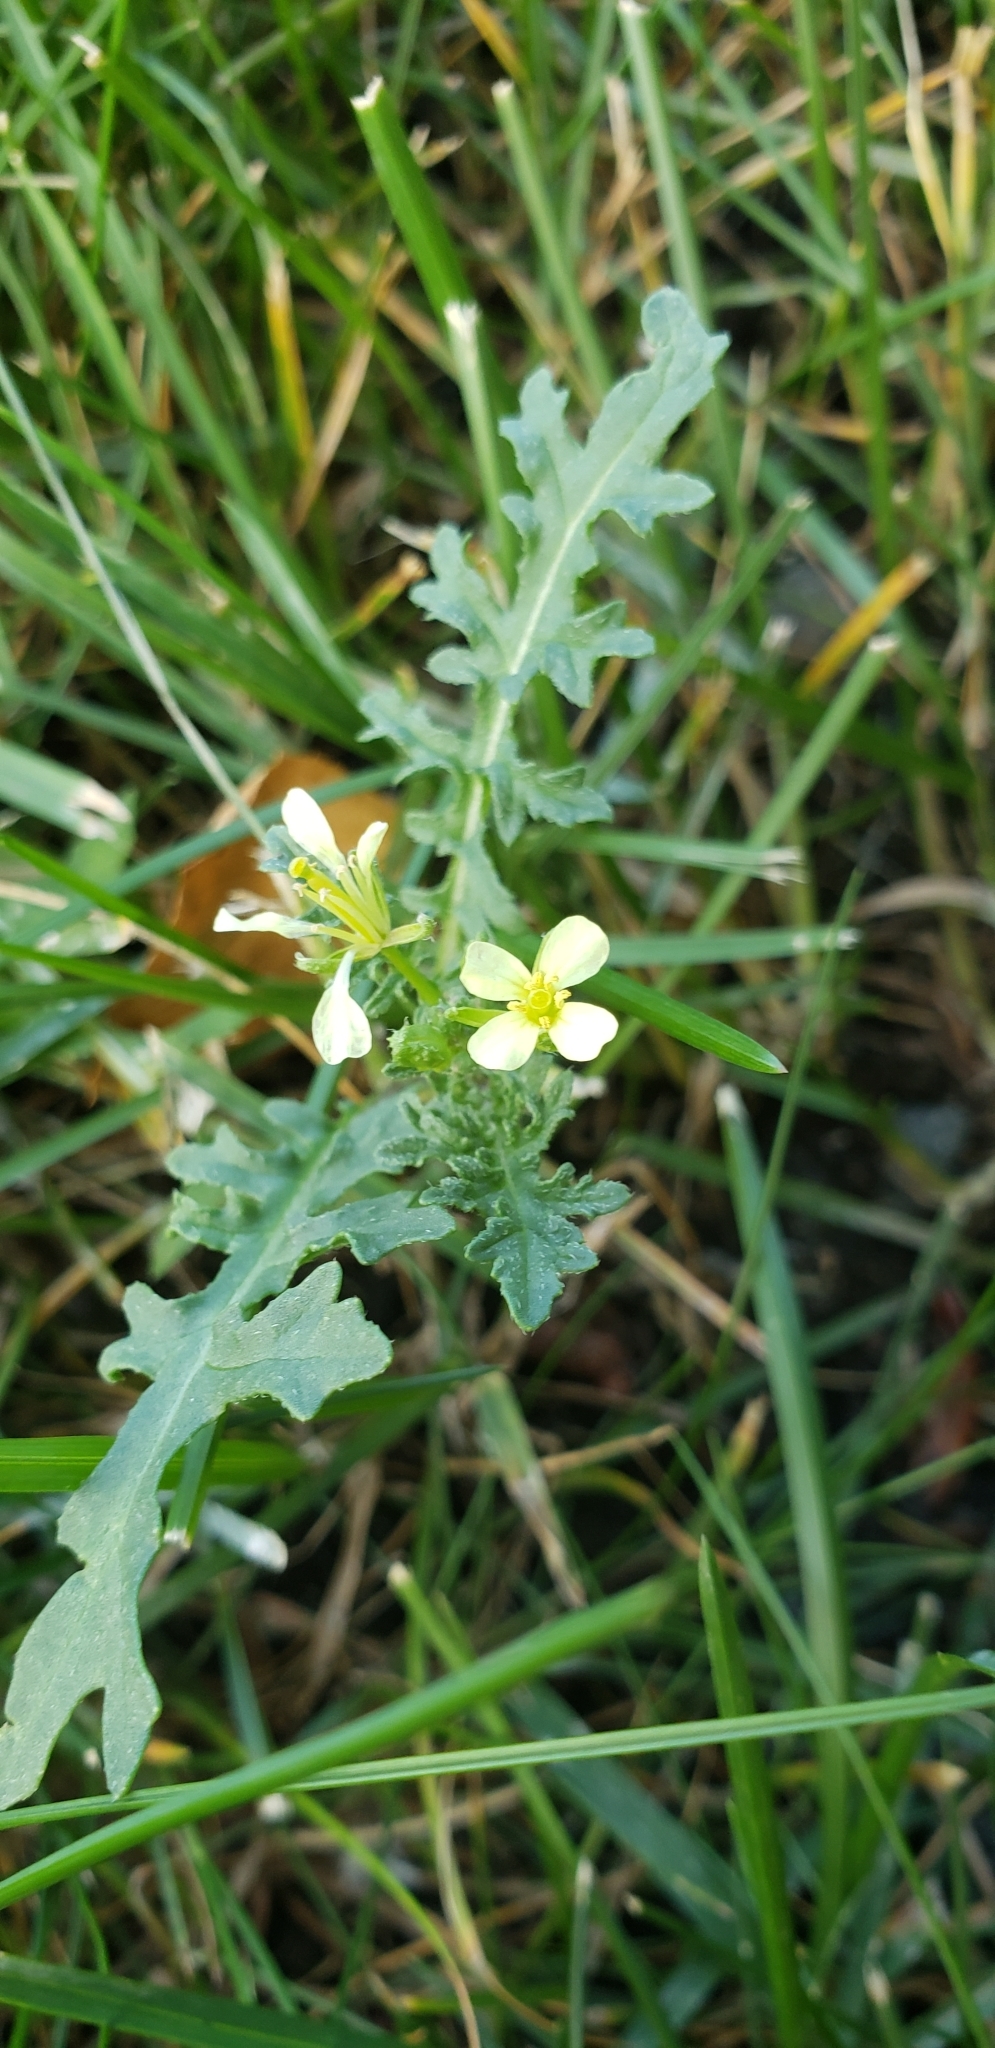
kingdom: Plantae
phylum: Tracheophyta
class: Magnoliopsida
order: Brassicales
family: Brassicaceae
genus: Erucastrum
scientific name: Erucastrum gallicum
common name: Hairy rocket
